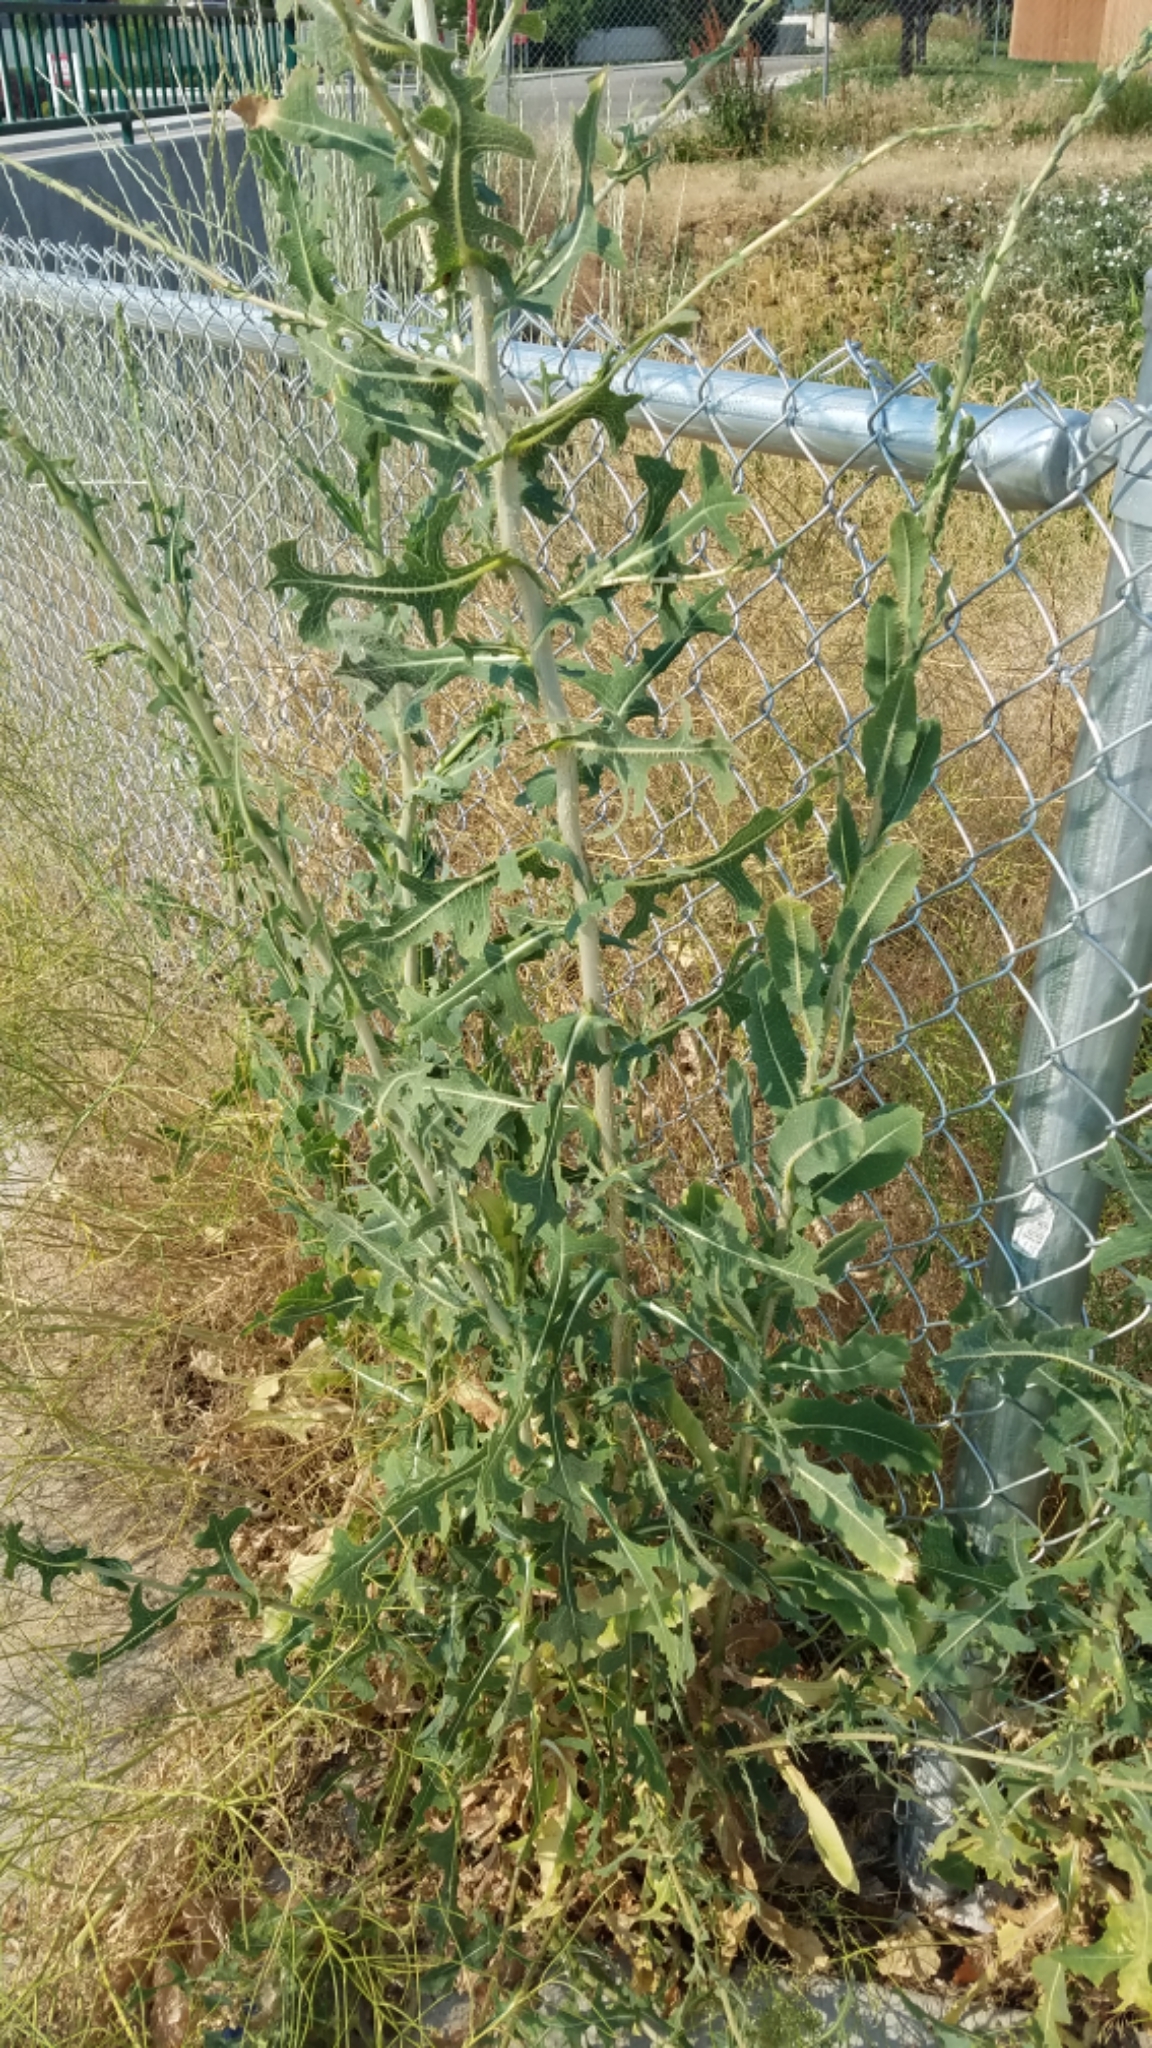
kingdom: Plantae
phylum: Tracheophyta
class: Magnoliopsida
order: Asterales
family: Asteraceae
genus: Lactuca
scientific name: Lactuca serriola
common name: Prickly lettuce
